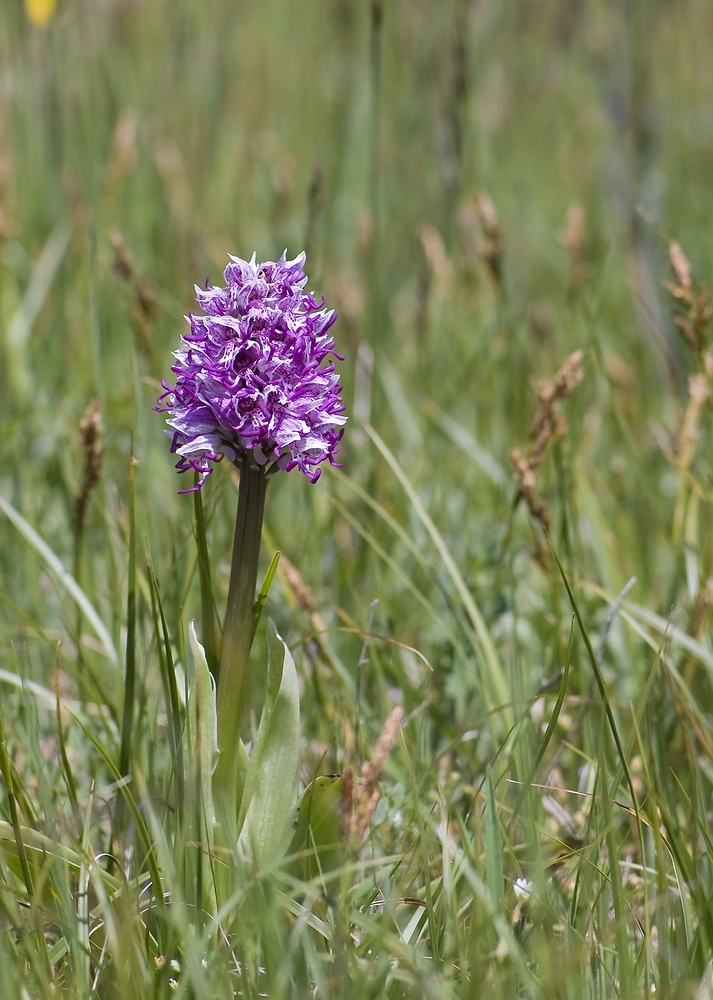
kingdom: Plantae
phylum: Tracheophyta
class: Liliopsida
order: Asparagales
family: Orchidaceae
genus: Orchis
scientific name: Orchis simia
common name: Monkey orchid
